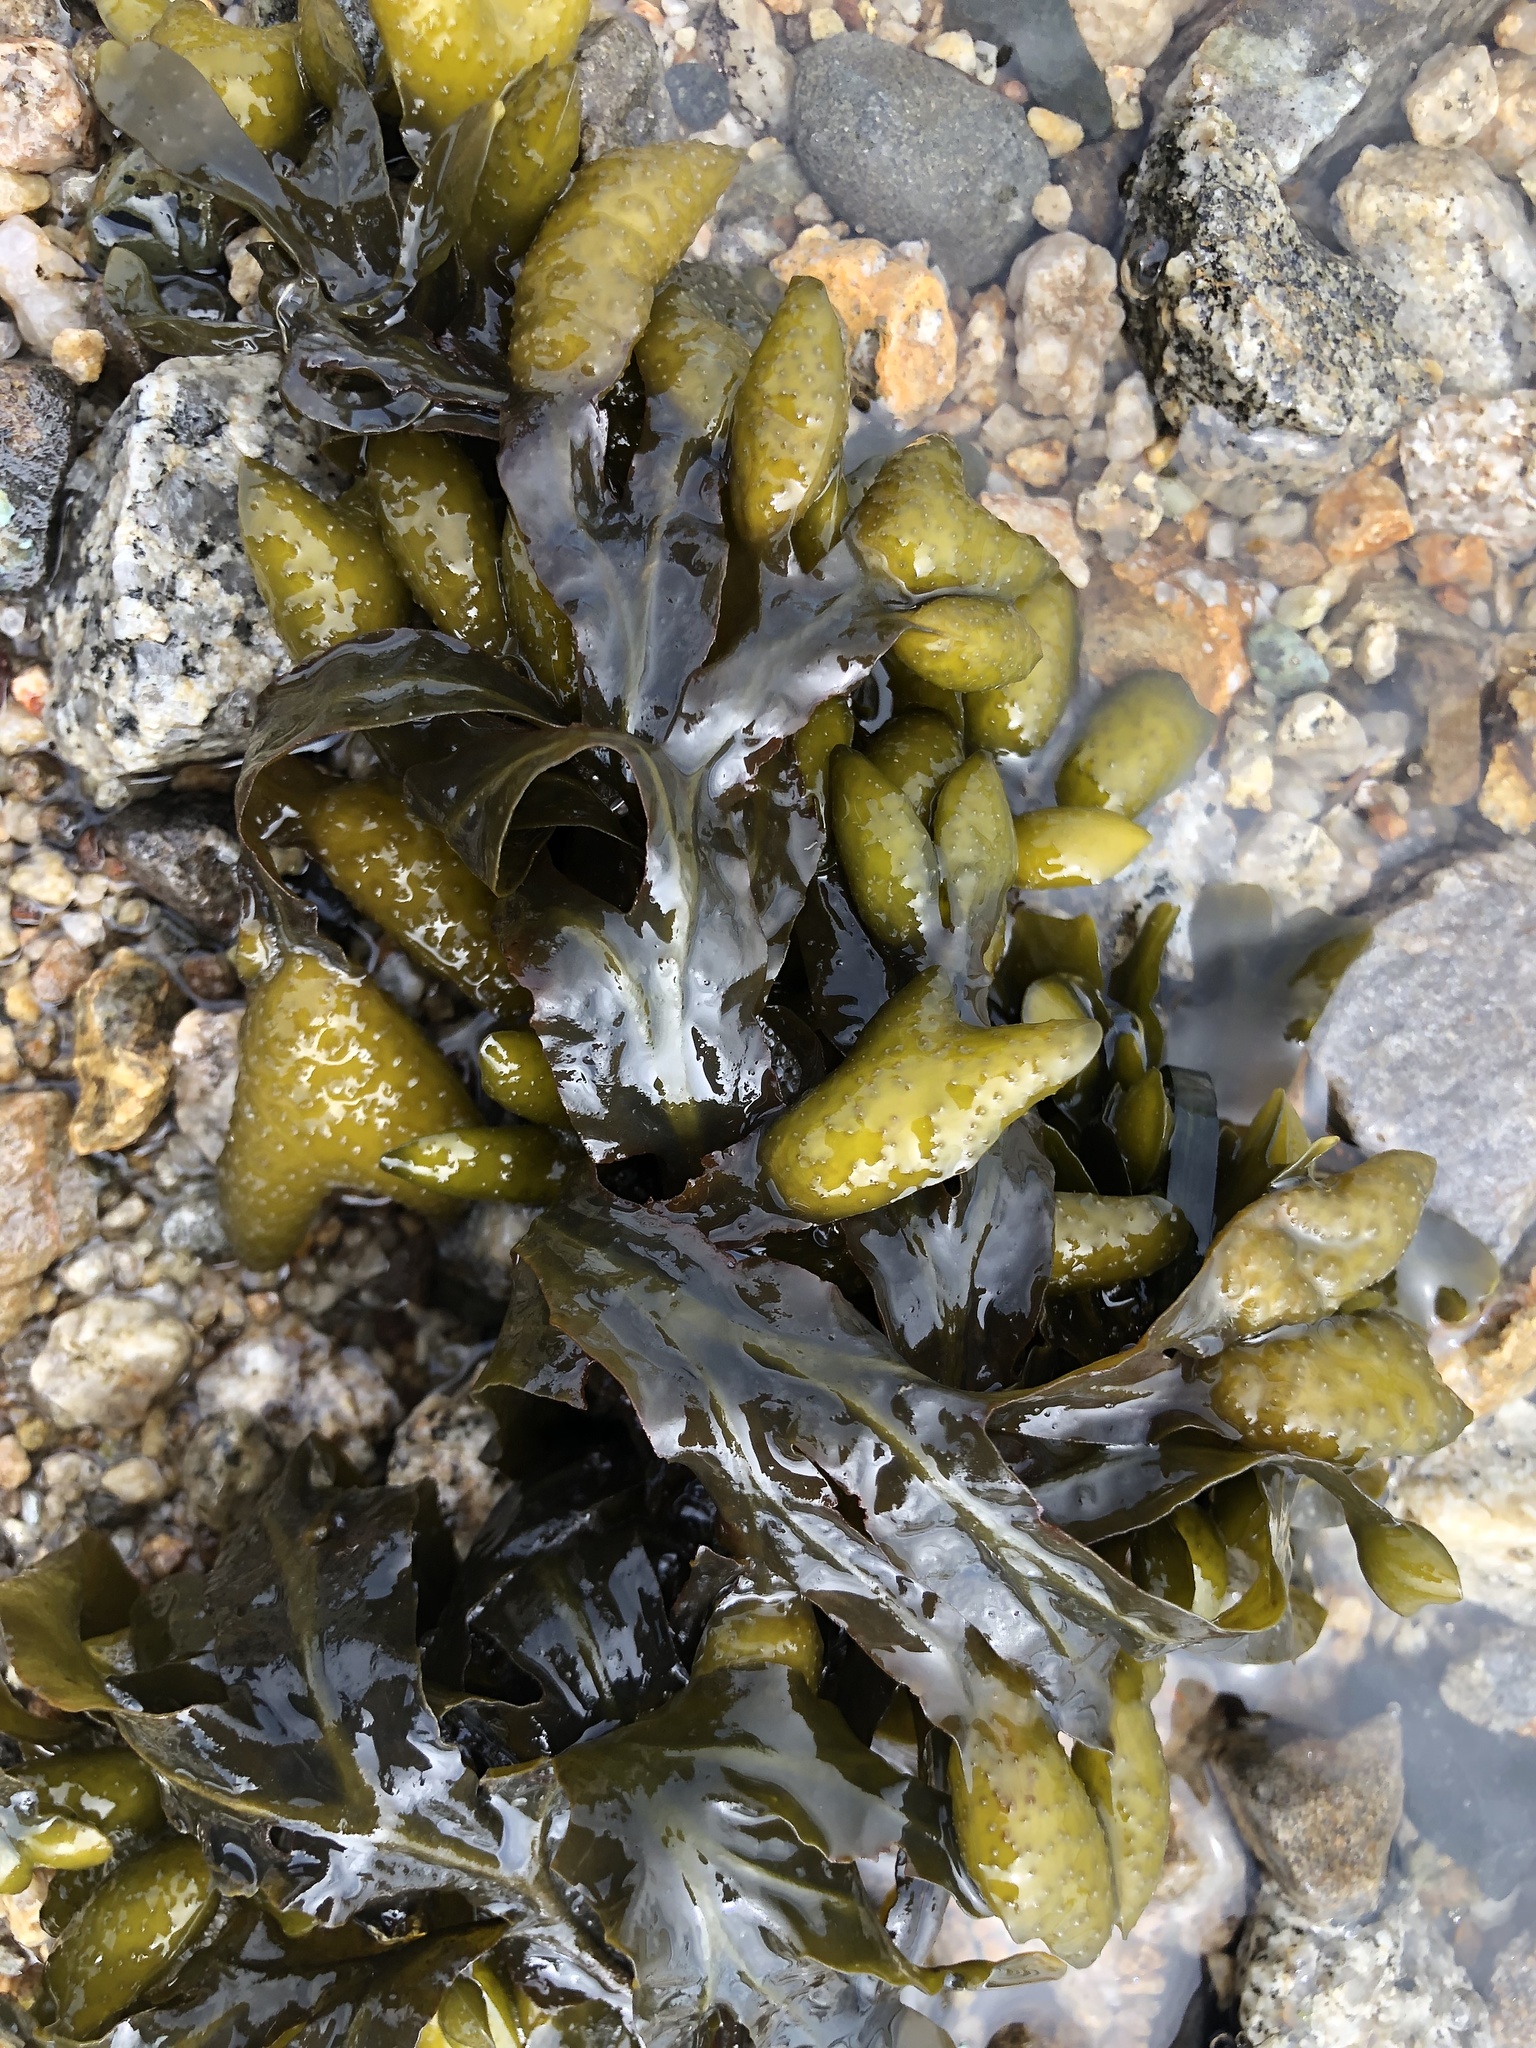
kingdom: Chromista
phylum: Ochrophyta
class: Phaeophyceae
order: Fucales
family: Fucaceae
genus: Fucus
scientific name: Fucus distichus
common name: Rockweed
